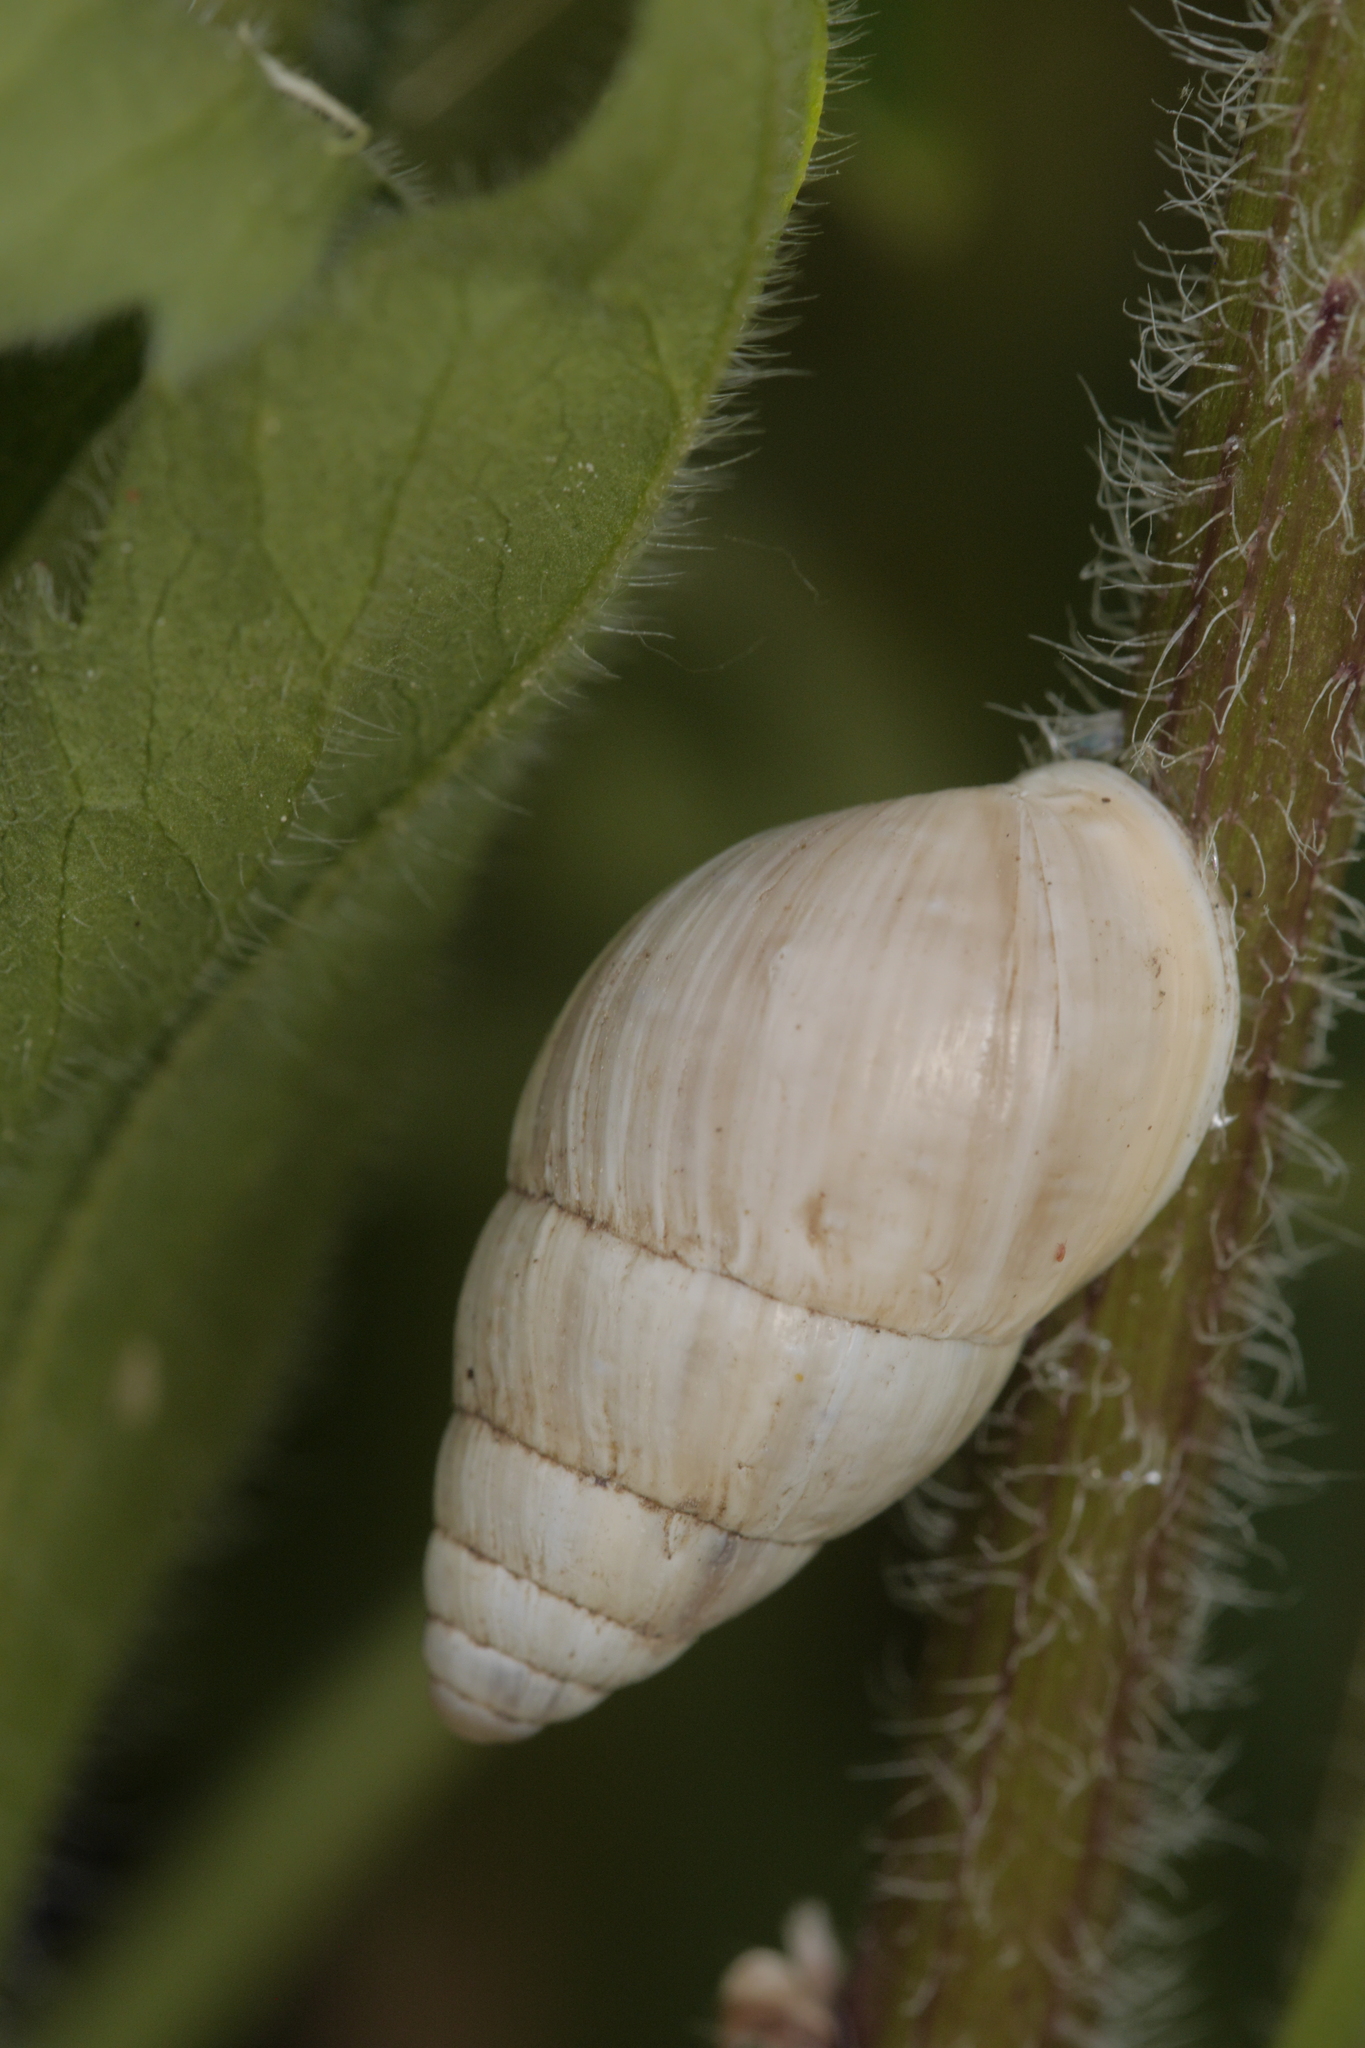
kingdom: Animalia
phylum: Mollusca
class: Gastropoda
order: Stylommatophora
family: Enidae
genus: Zebrina
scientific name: Zebrina detrita
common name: Large bulin
